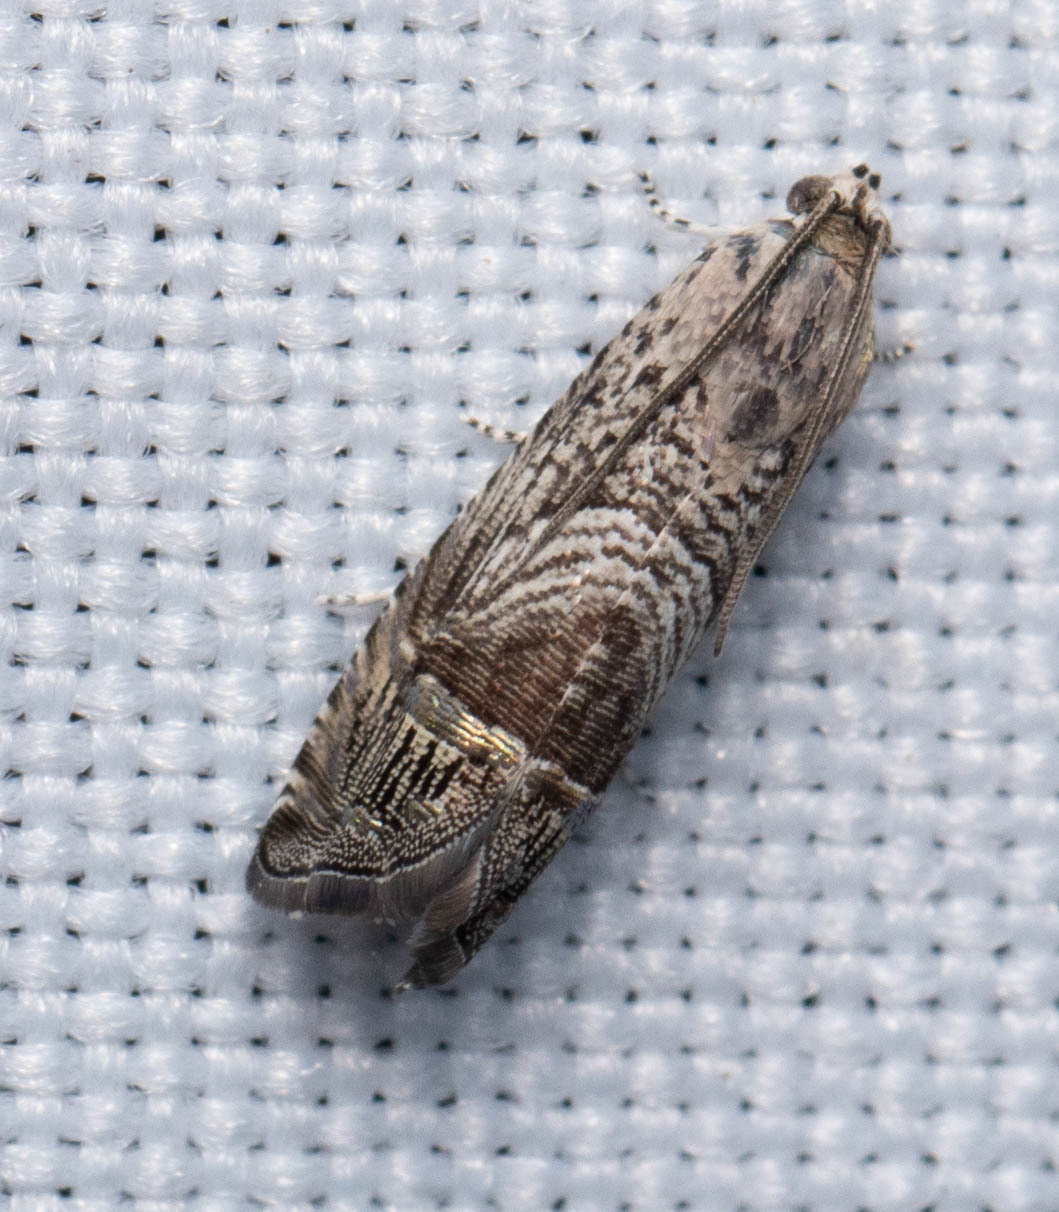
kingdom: Animalia
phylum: Arthropoda
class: Insecta
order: Lepidoptera
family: Tortricidae
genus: Ofatulena
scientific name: Ofatulena duodecemstriata
